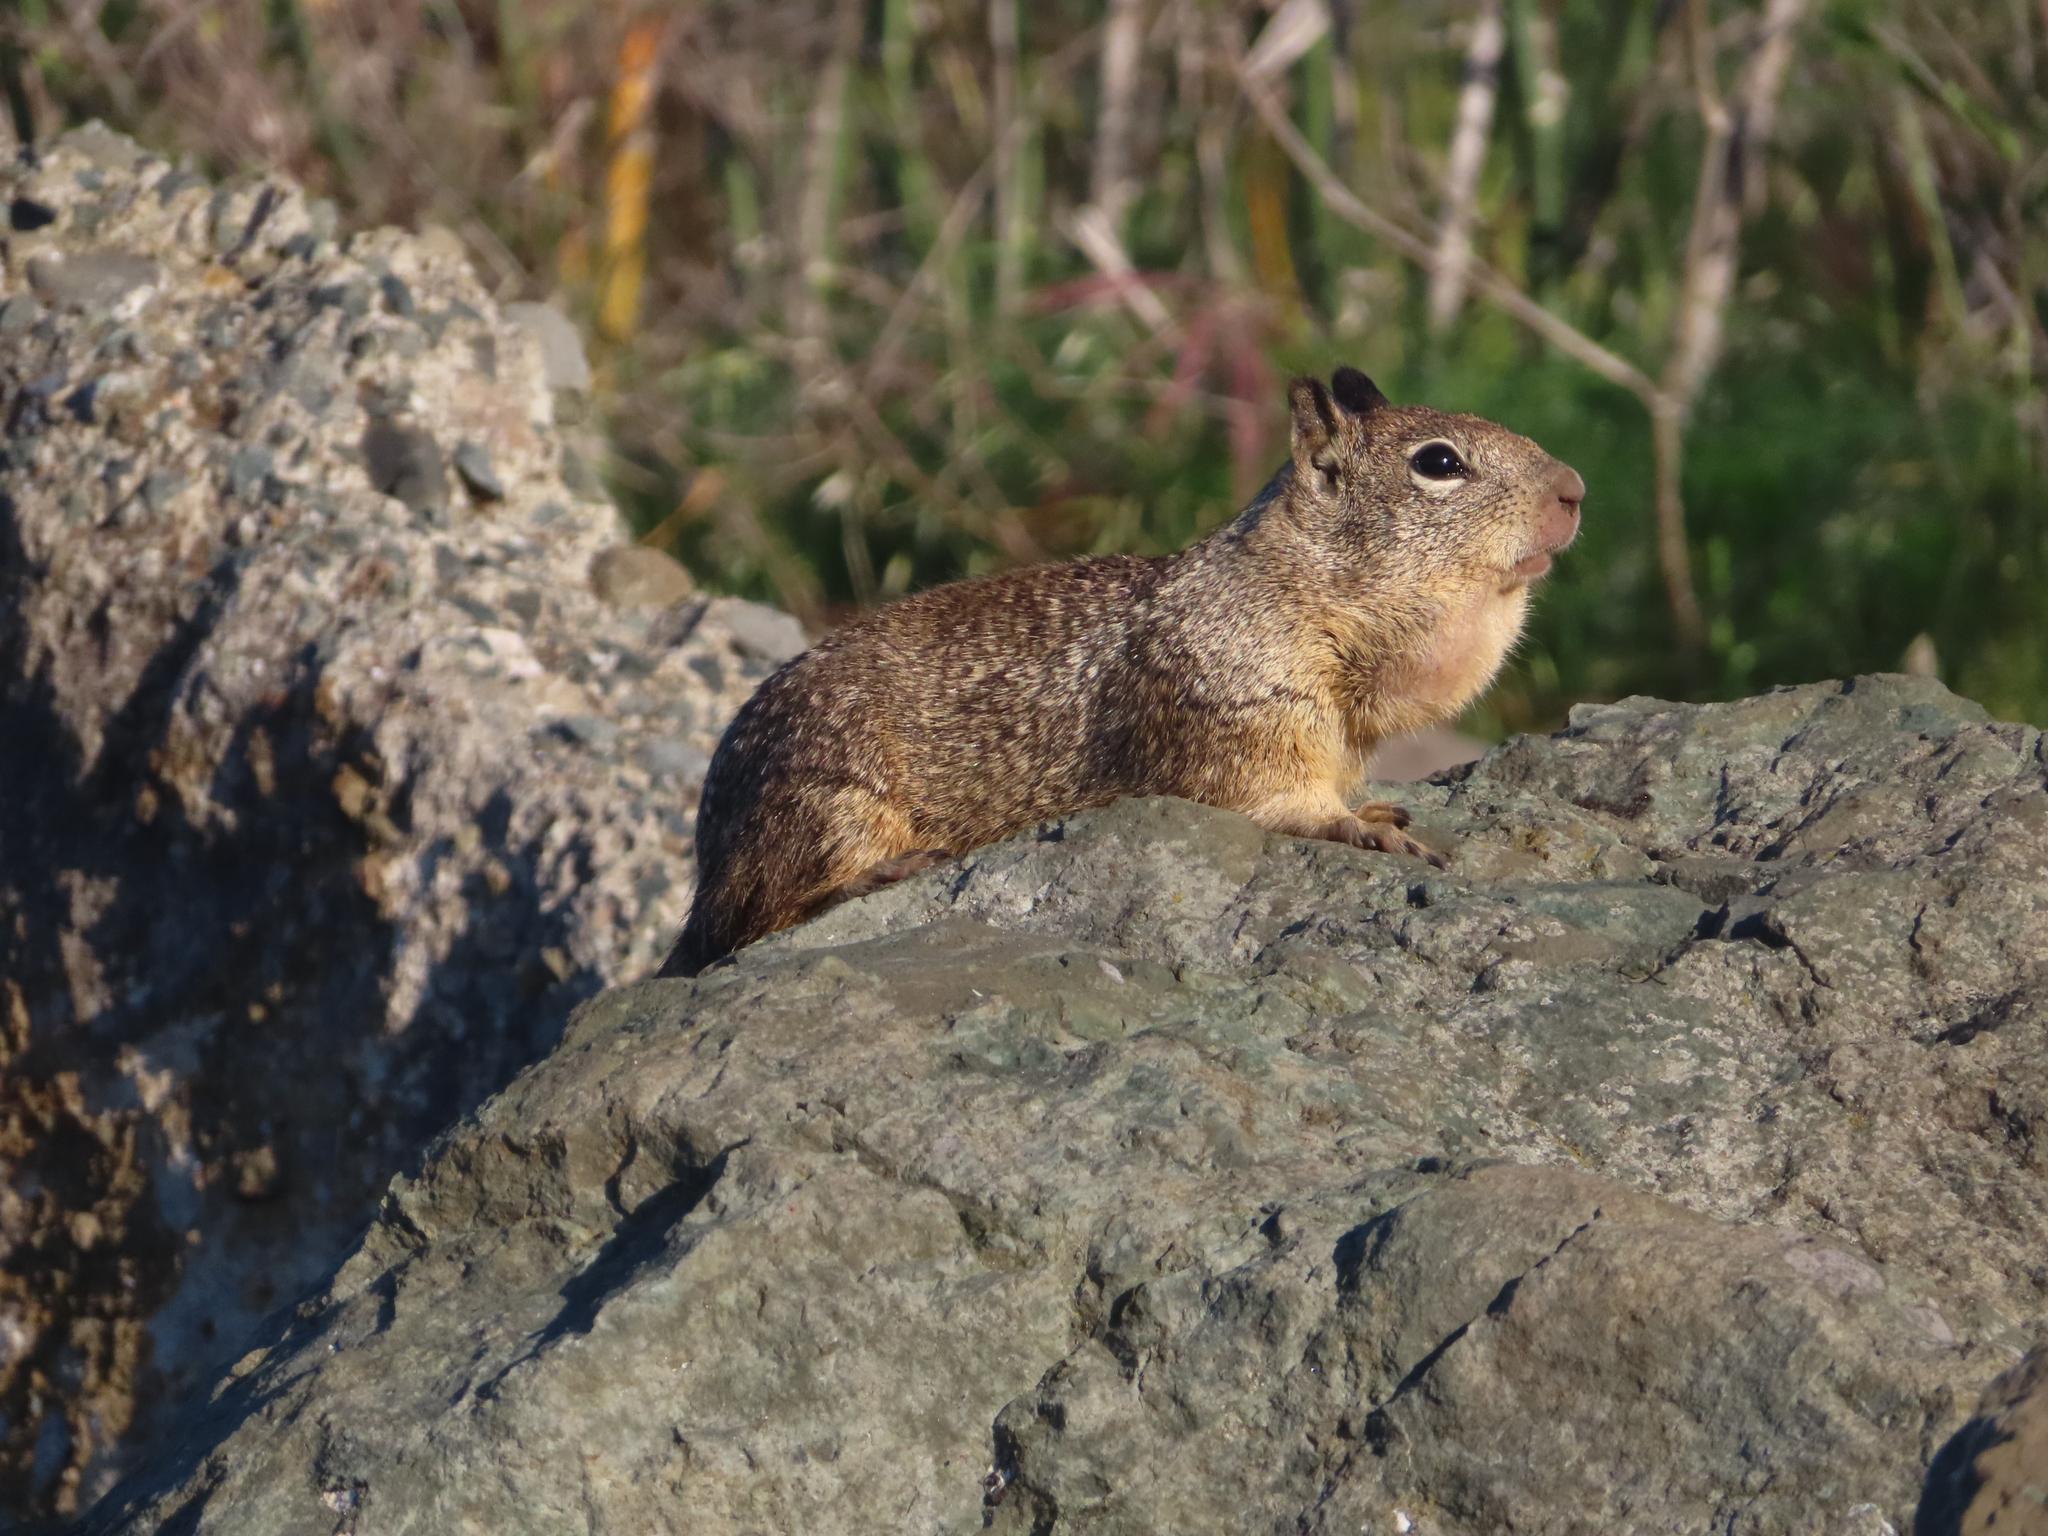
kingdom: Animalia
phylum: Chordata
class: Mammalia
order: Rodentia
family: Sciuridae
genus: Otospermophilus
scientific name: Otospermophilus beecheyi
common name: California ground squirrel
